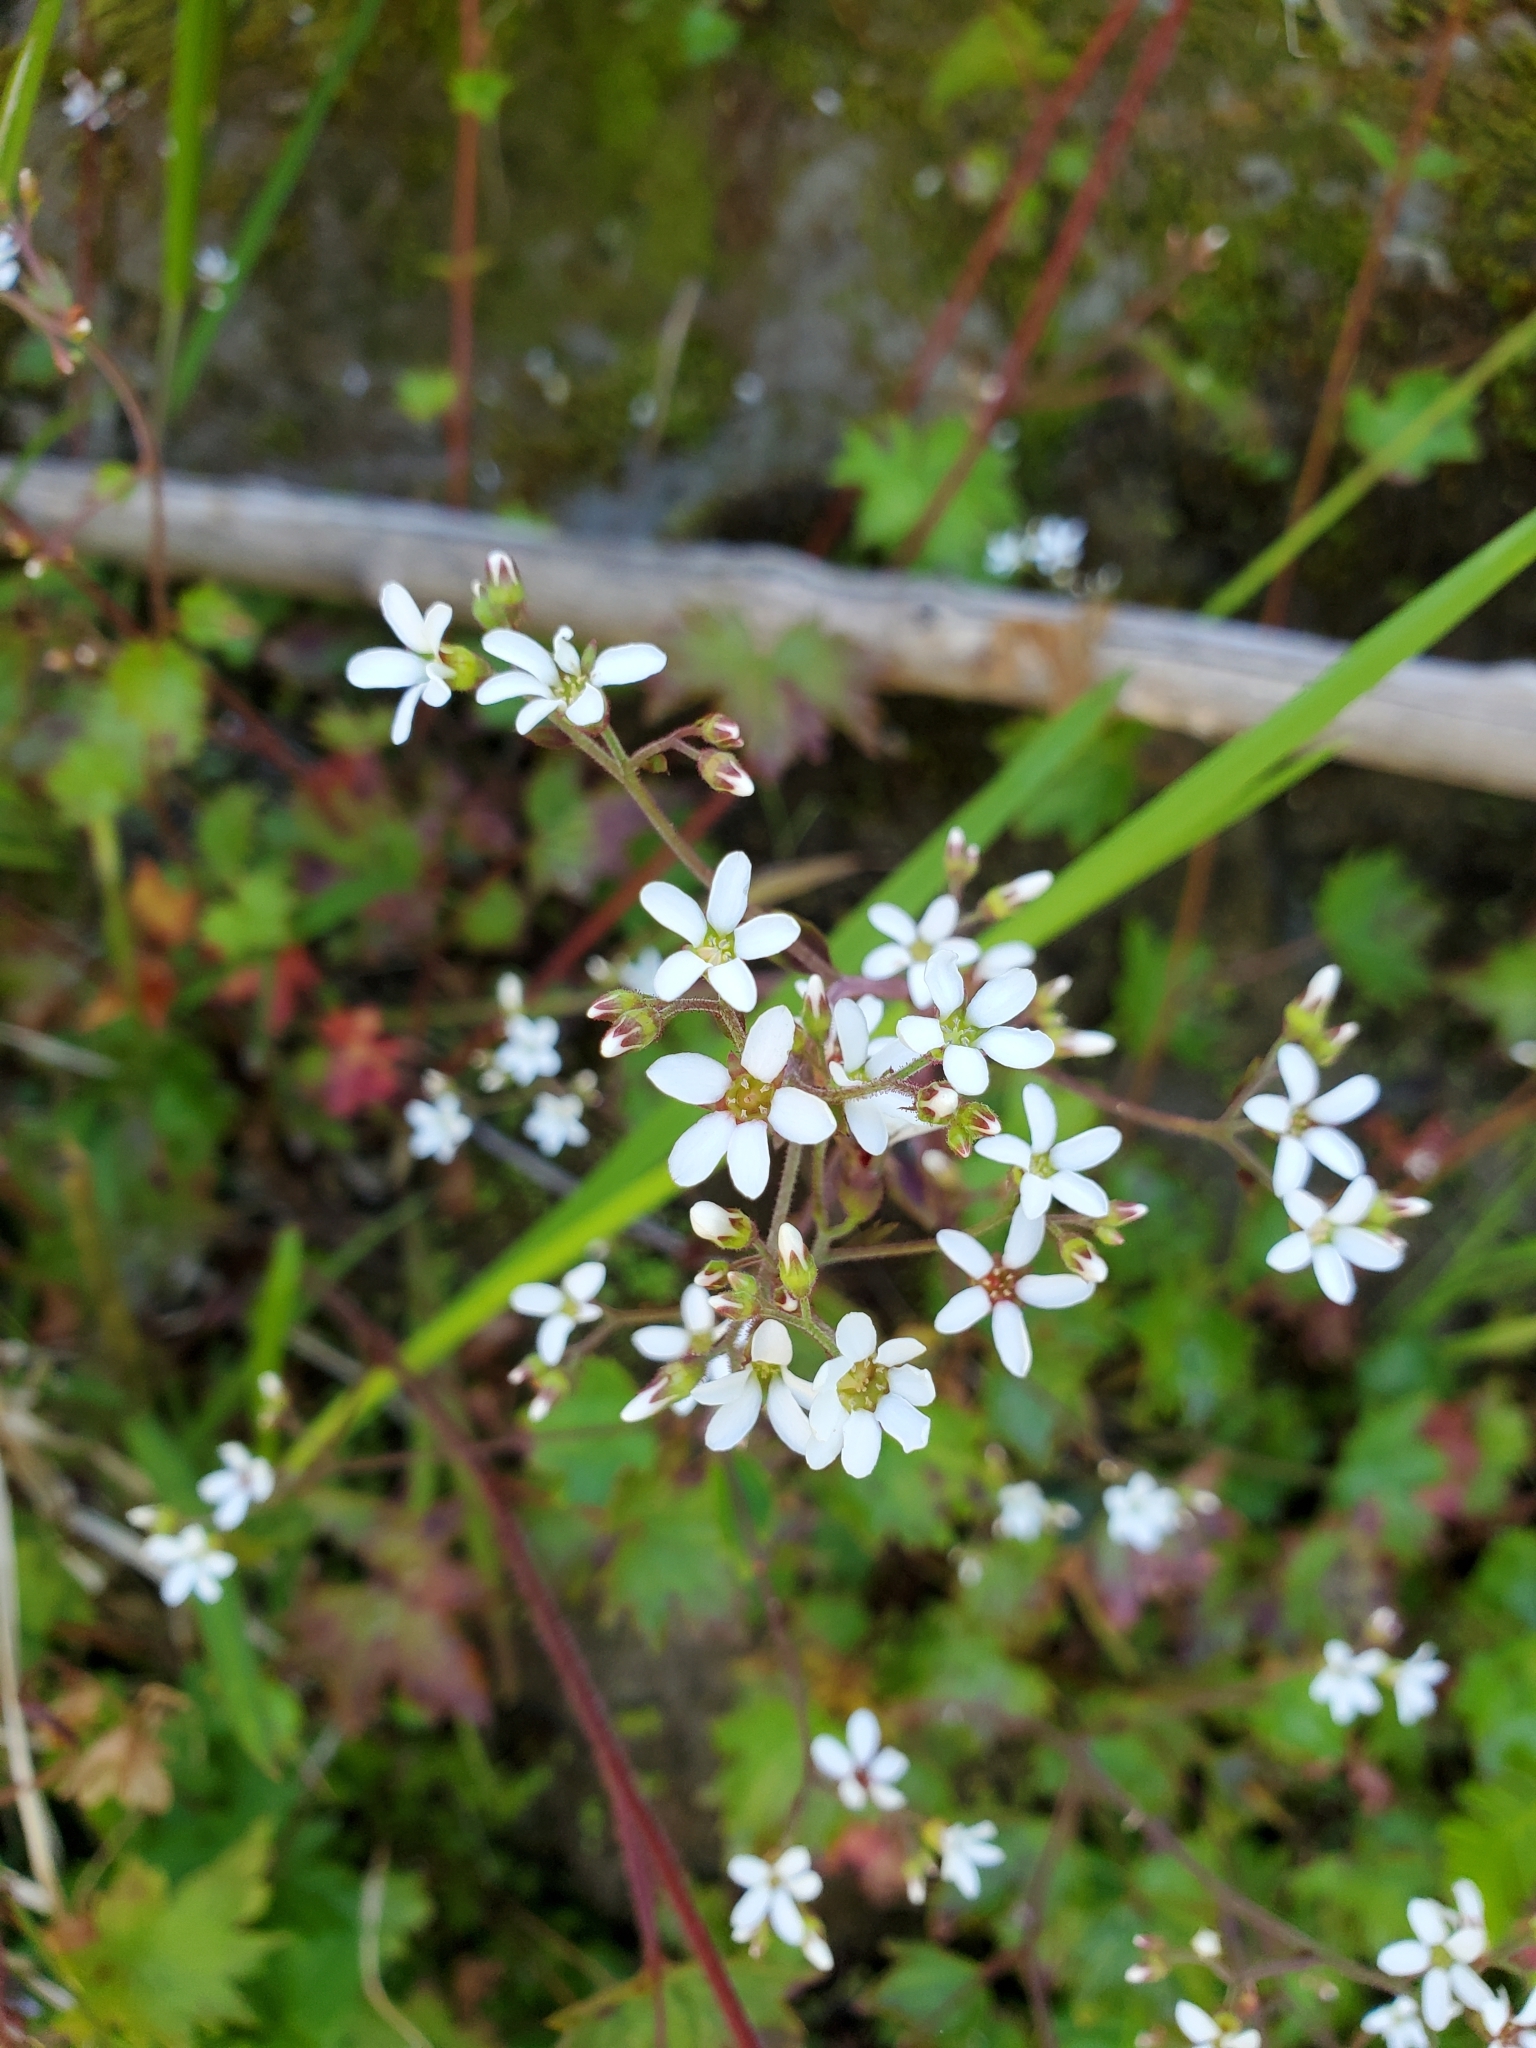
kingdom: Plantae
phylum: Tracheophyta
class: Magnoliopsida
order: Saxifragales
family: Saxifragaceae
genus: Boykinia
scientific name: Boykinia occidentalis
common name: Coast boykinia
